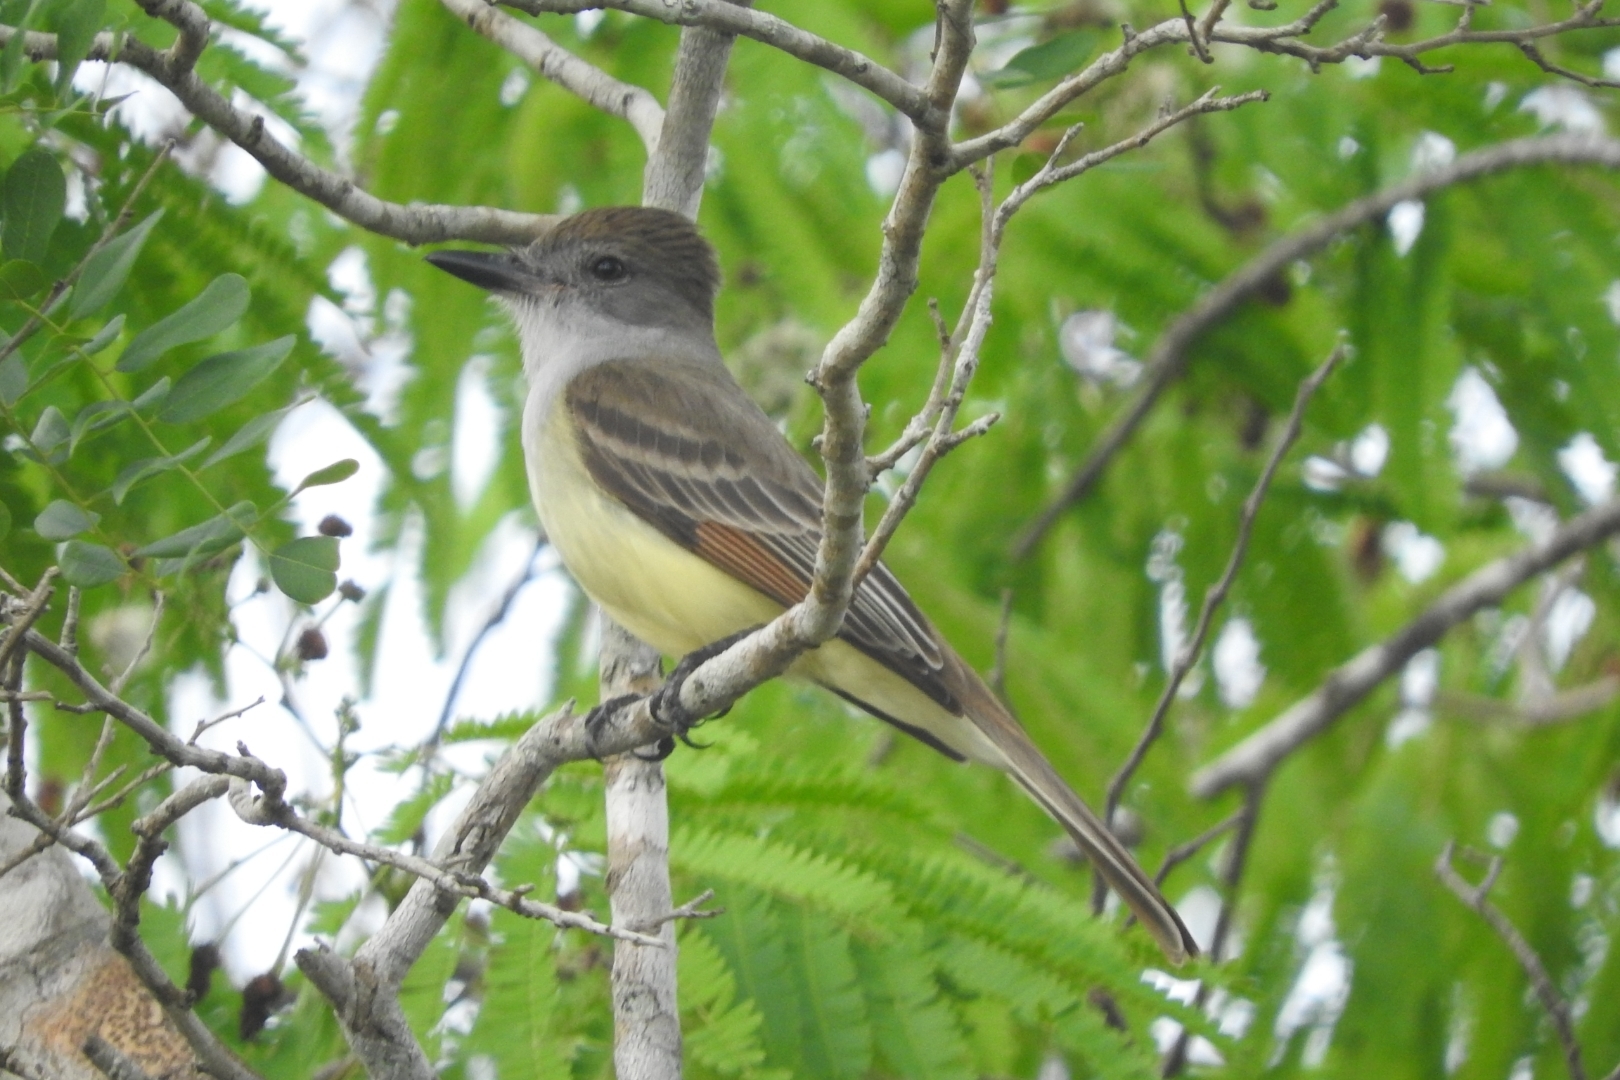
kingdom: Animalia
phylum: Chordata
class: Aves
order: Passeriformes
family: Tyrannidae
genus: Myiarchus
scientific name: Myiarchus yucatanensis
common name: Yucatan flycatcher
